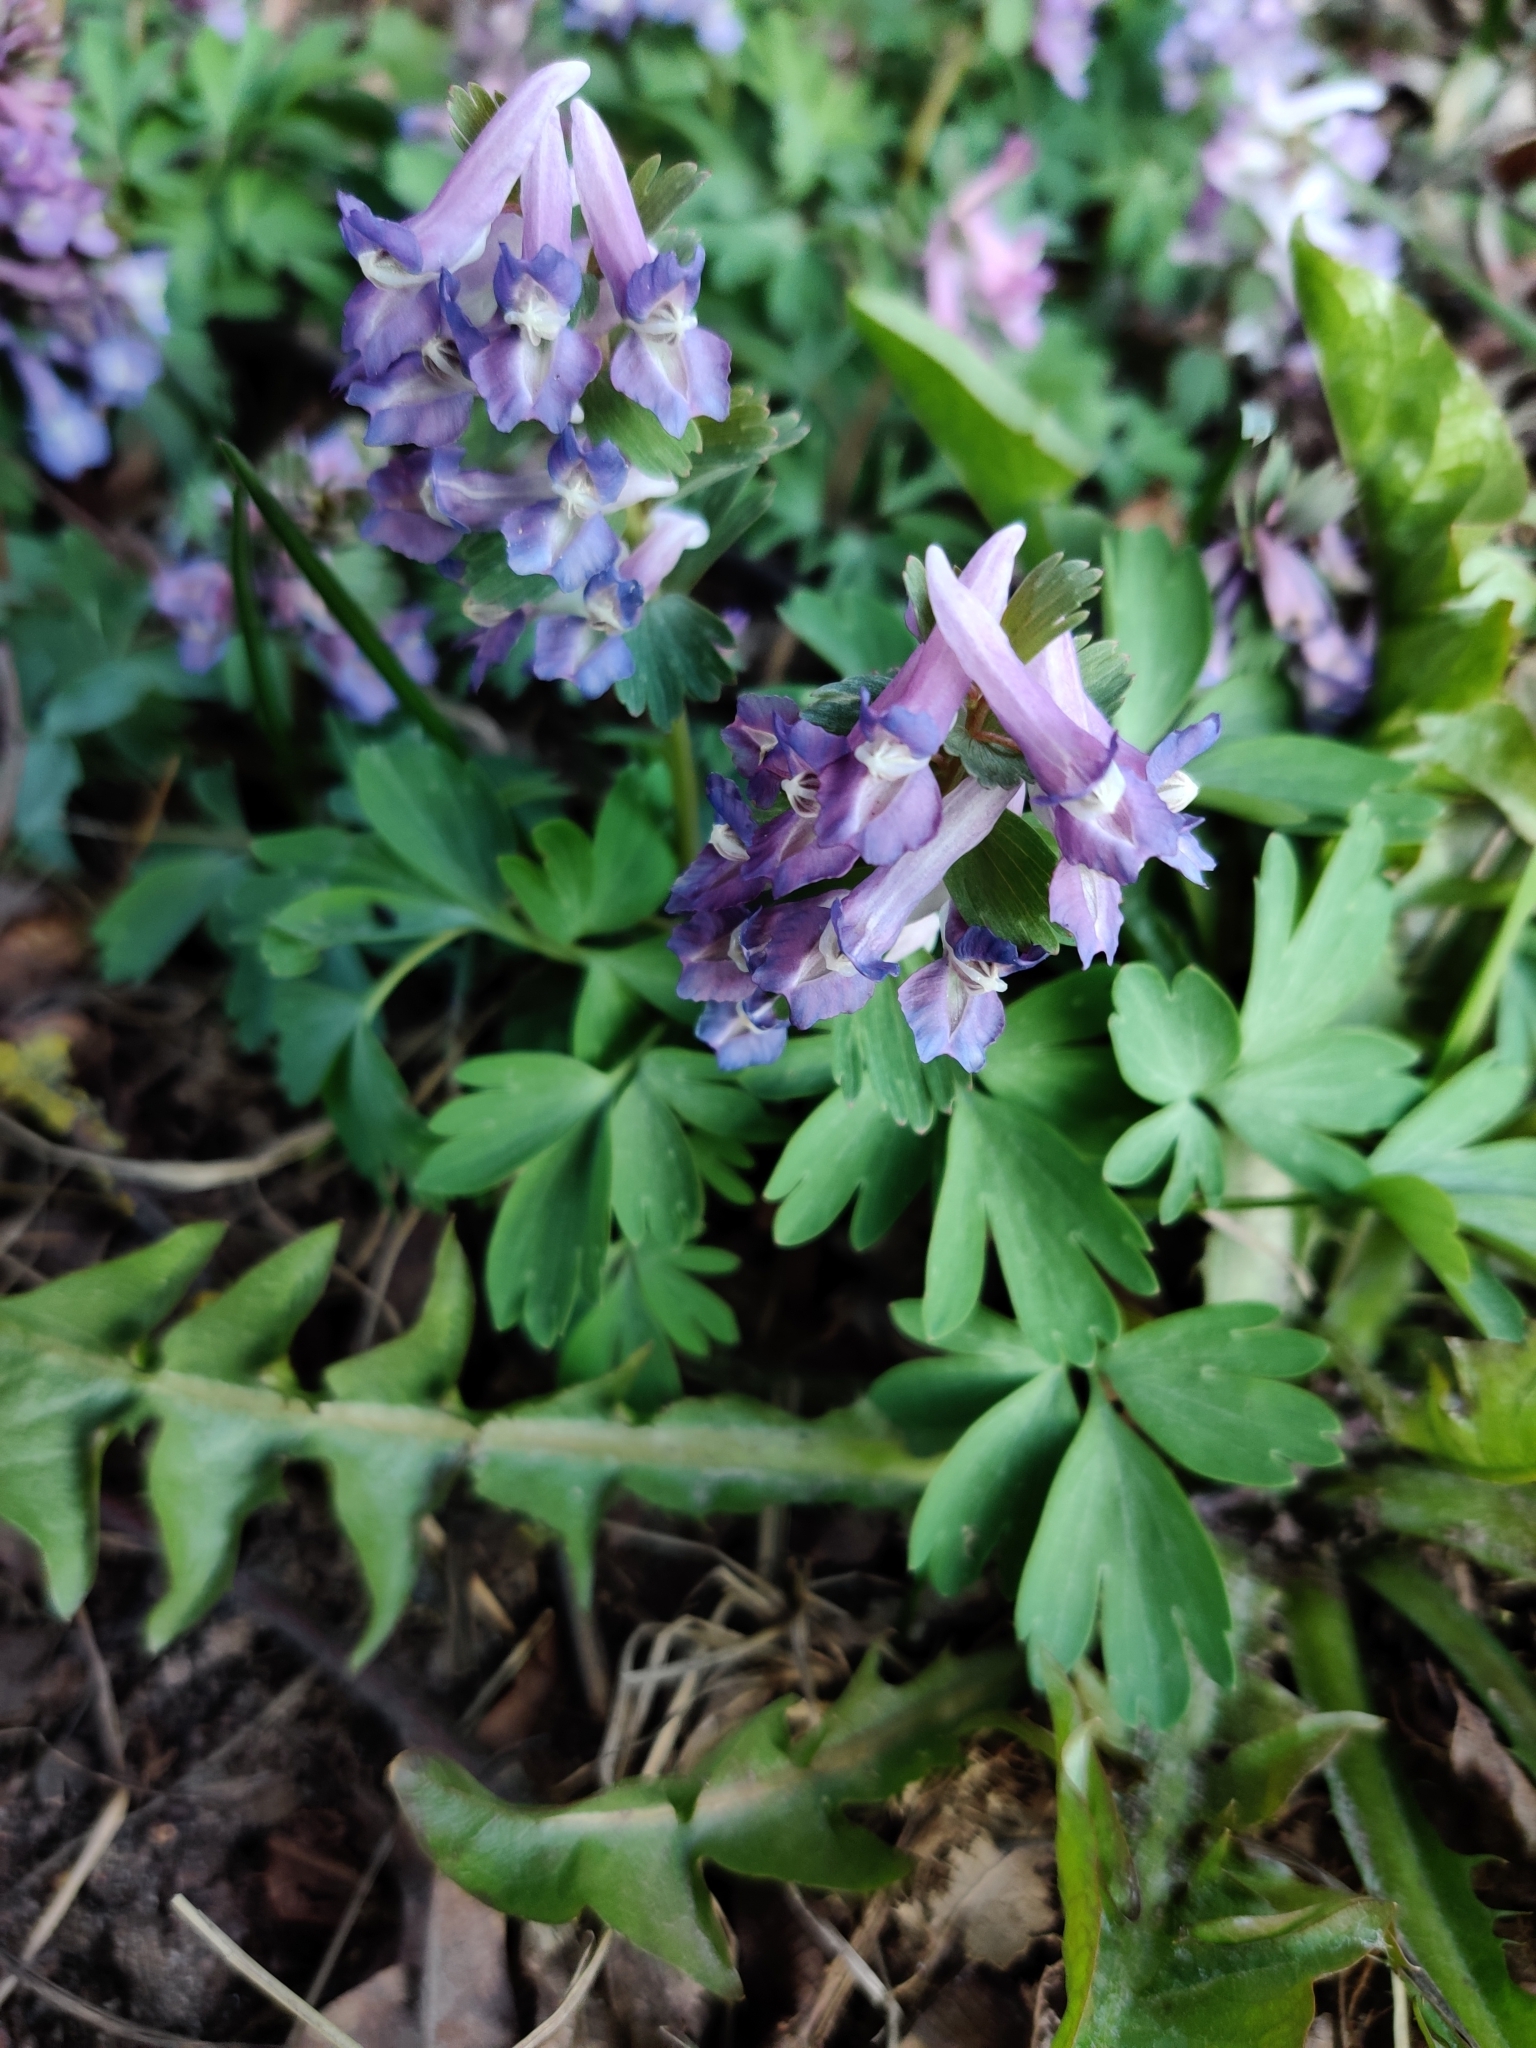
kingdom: Plantae
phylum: Tracheophyta
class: Magnoliopsida
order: Ranunculales
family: Papaveraceae
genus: Corydalis
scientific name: Corydalis solida
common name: Bird-in-a-bush
